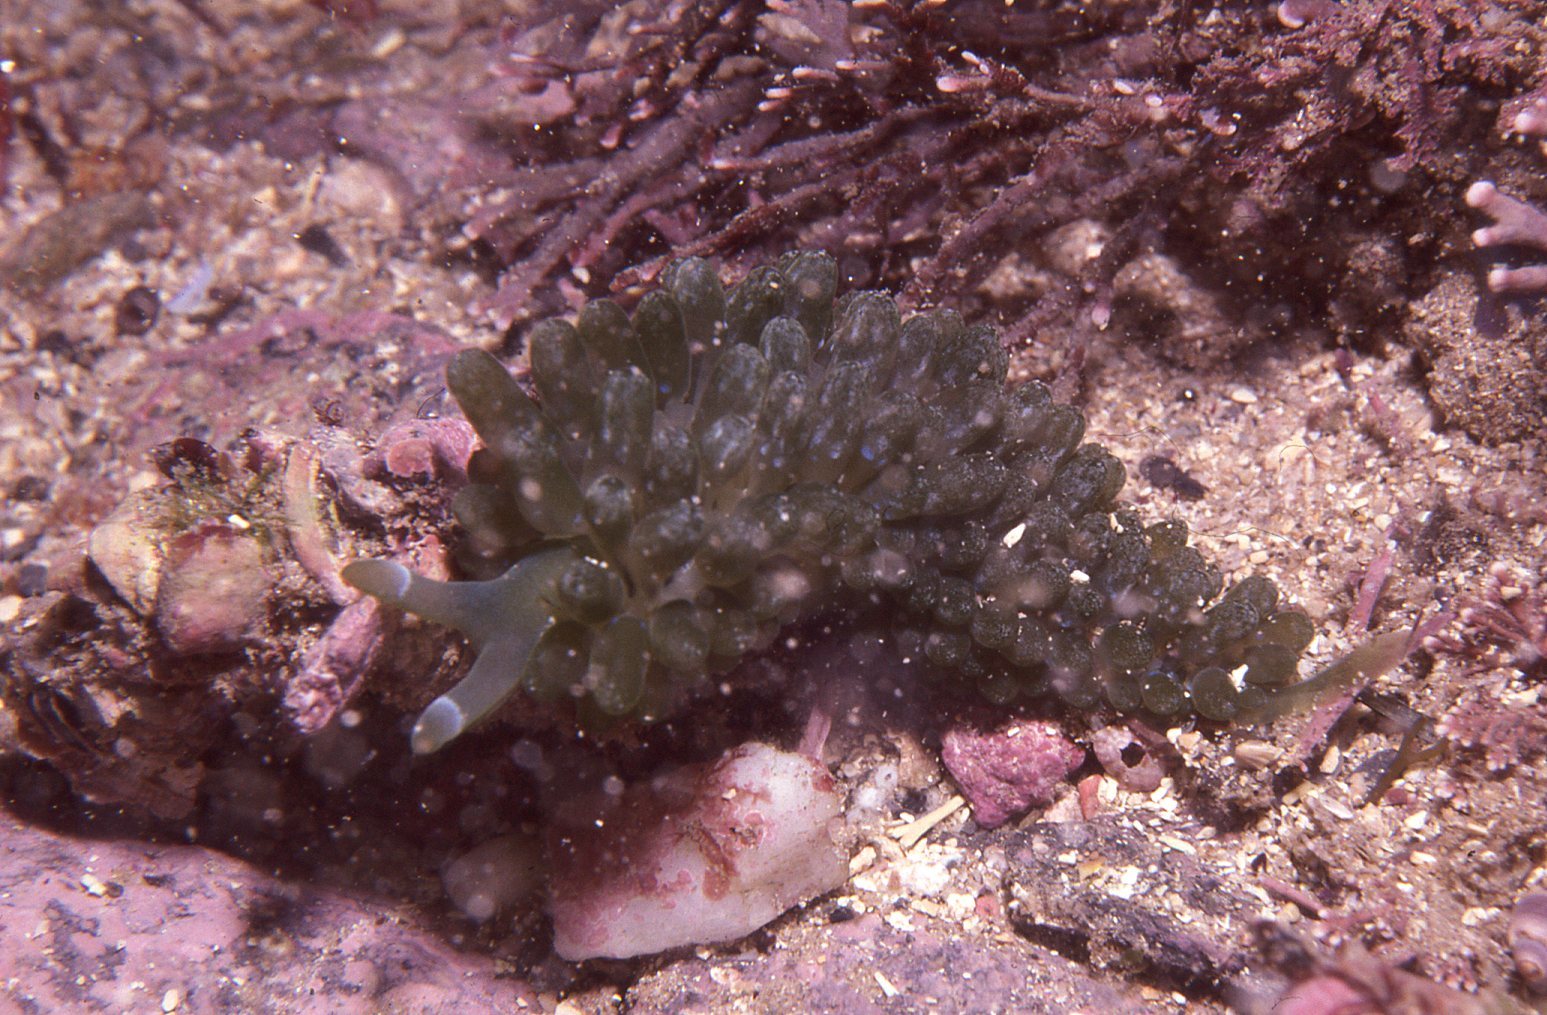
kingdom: Animalia
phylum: Mollusca
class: Gastropoda
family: Limapontiidae
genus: Sacoproteus
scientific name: Sacoproteus smaragdinus
